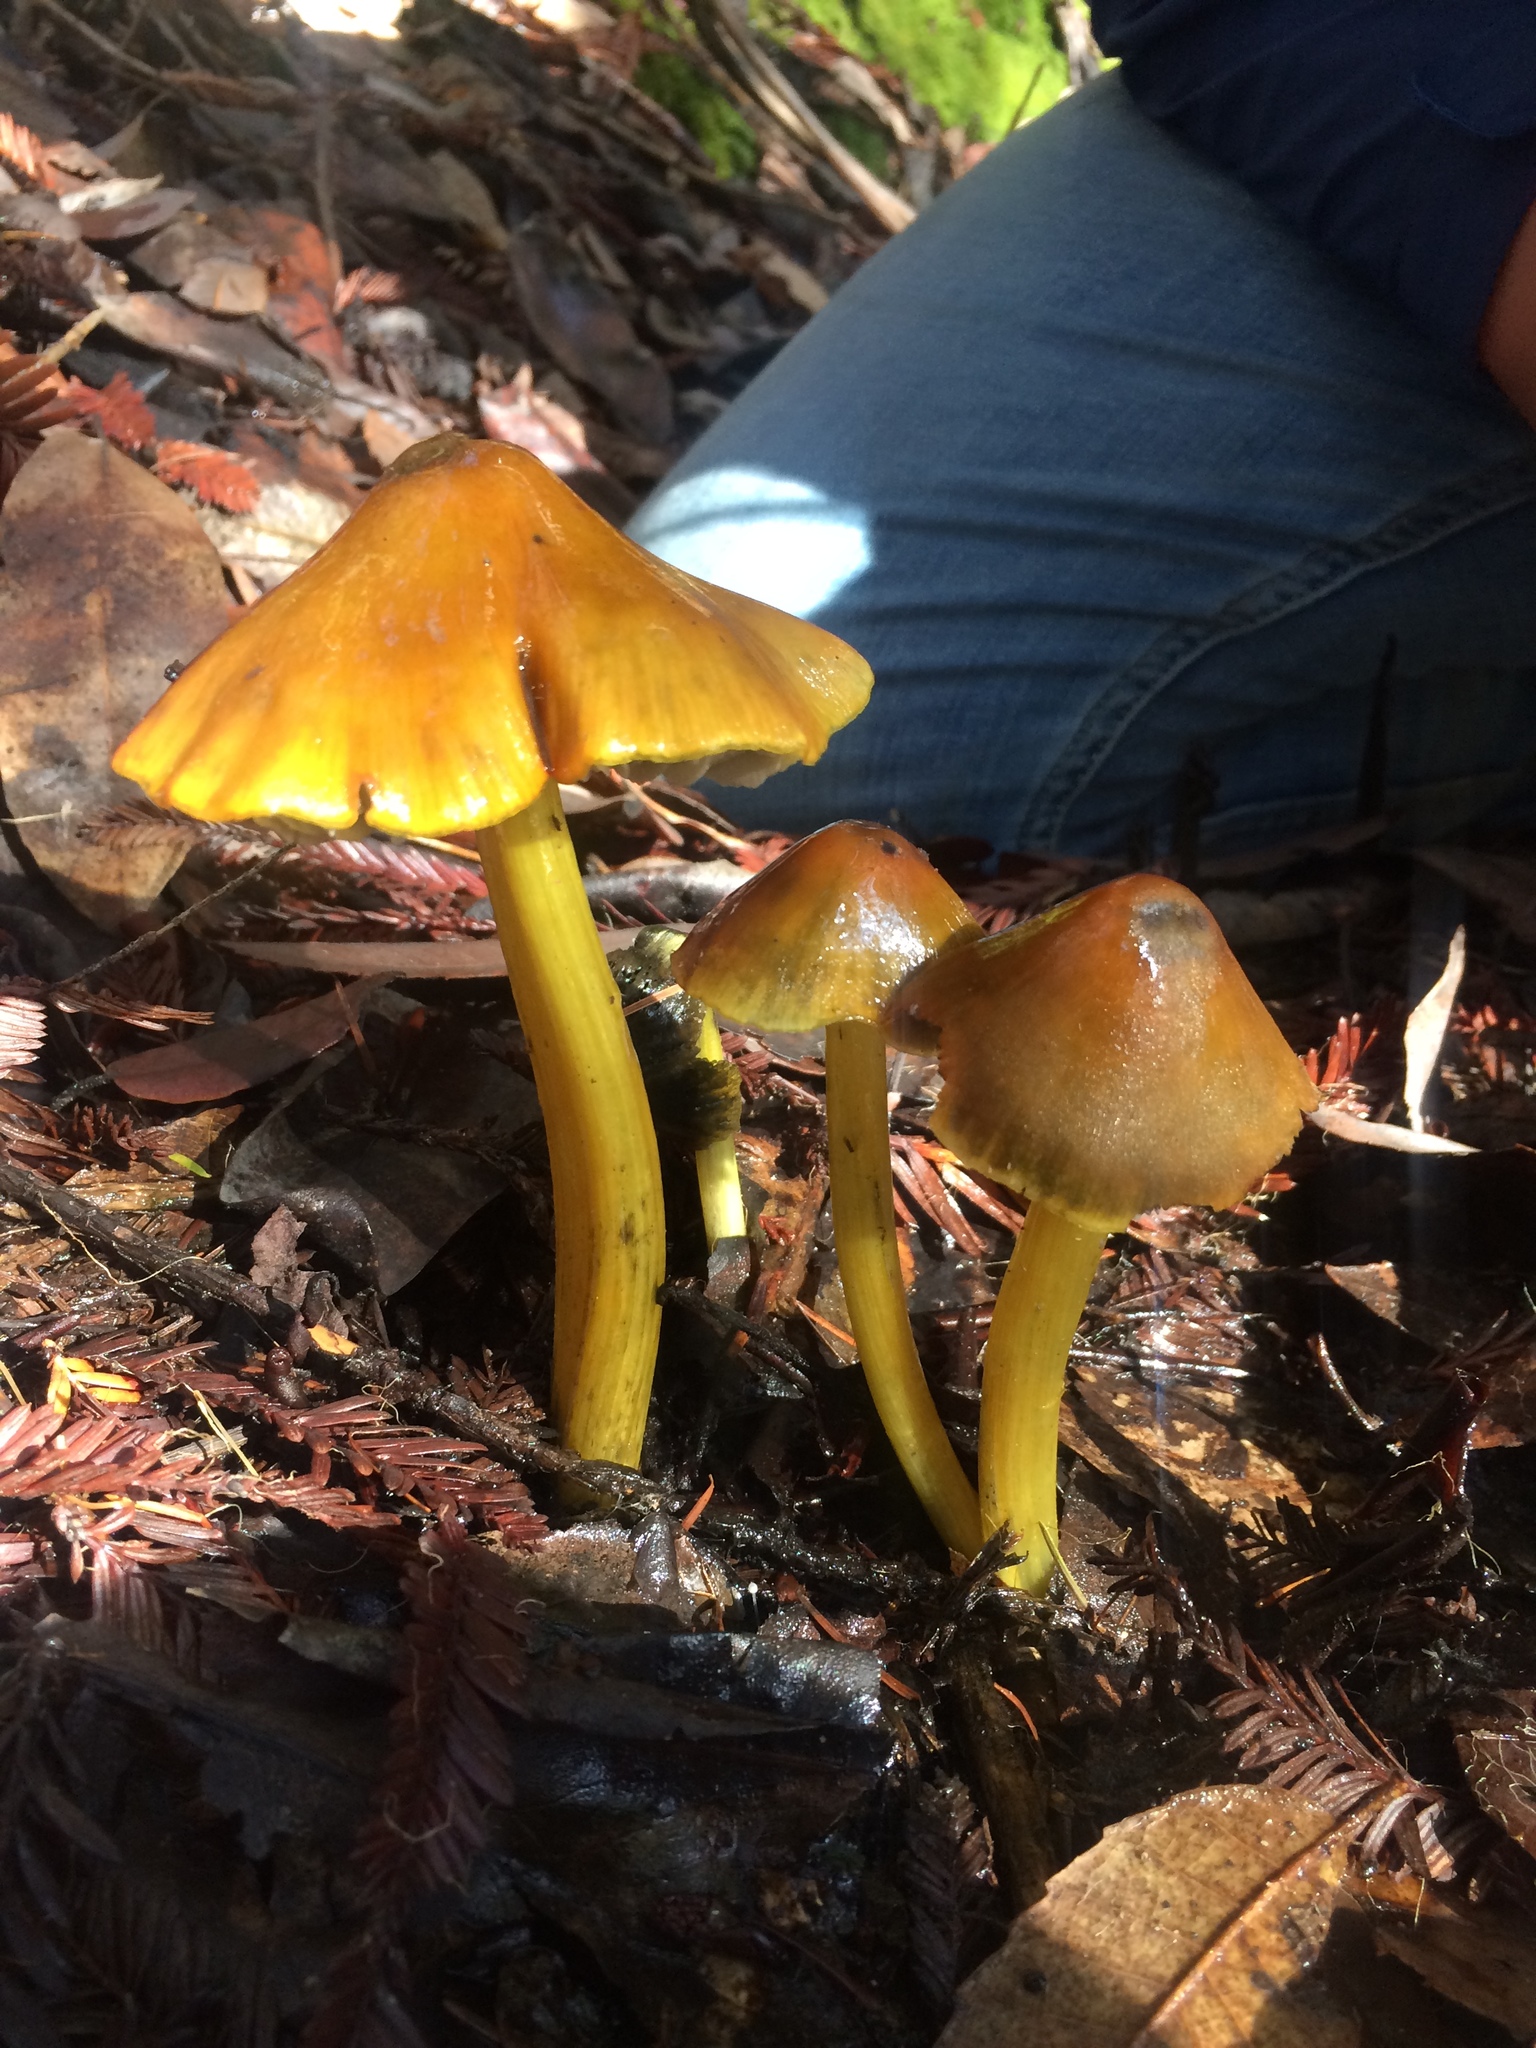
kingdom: Fungi
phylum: Basidiomycota
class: Agaricomycetes
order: Agaricales
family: Hygrophoraceae
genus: Hygrocybe
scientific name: Hygrocybe singeri
